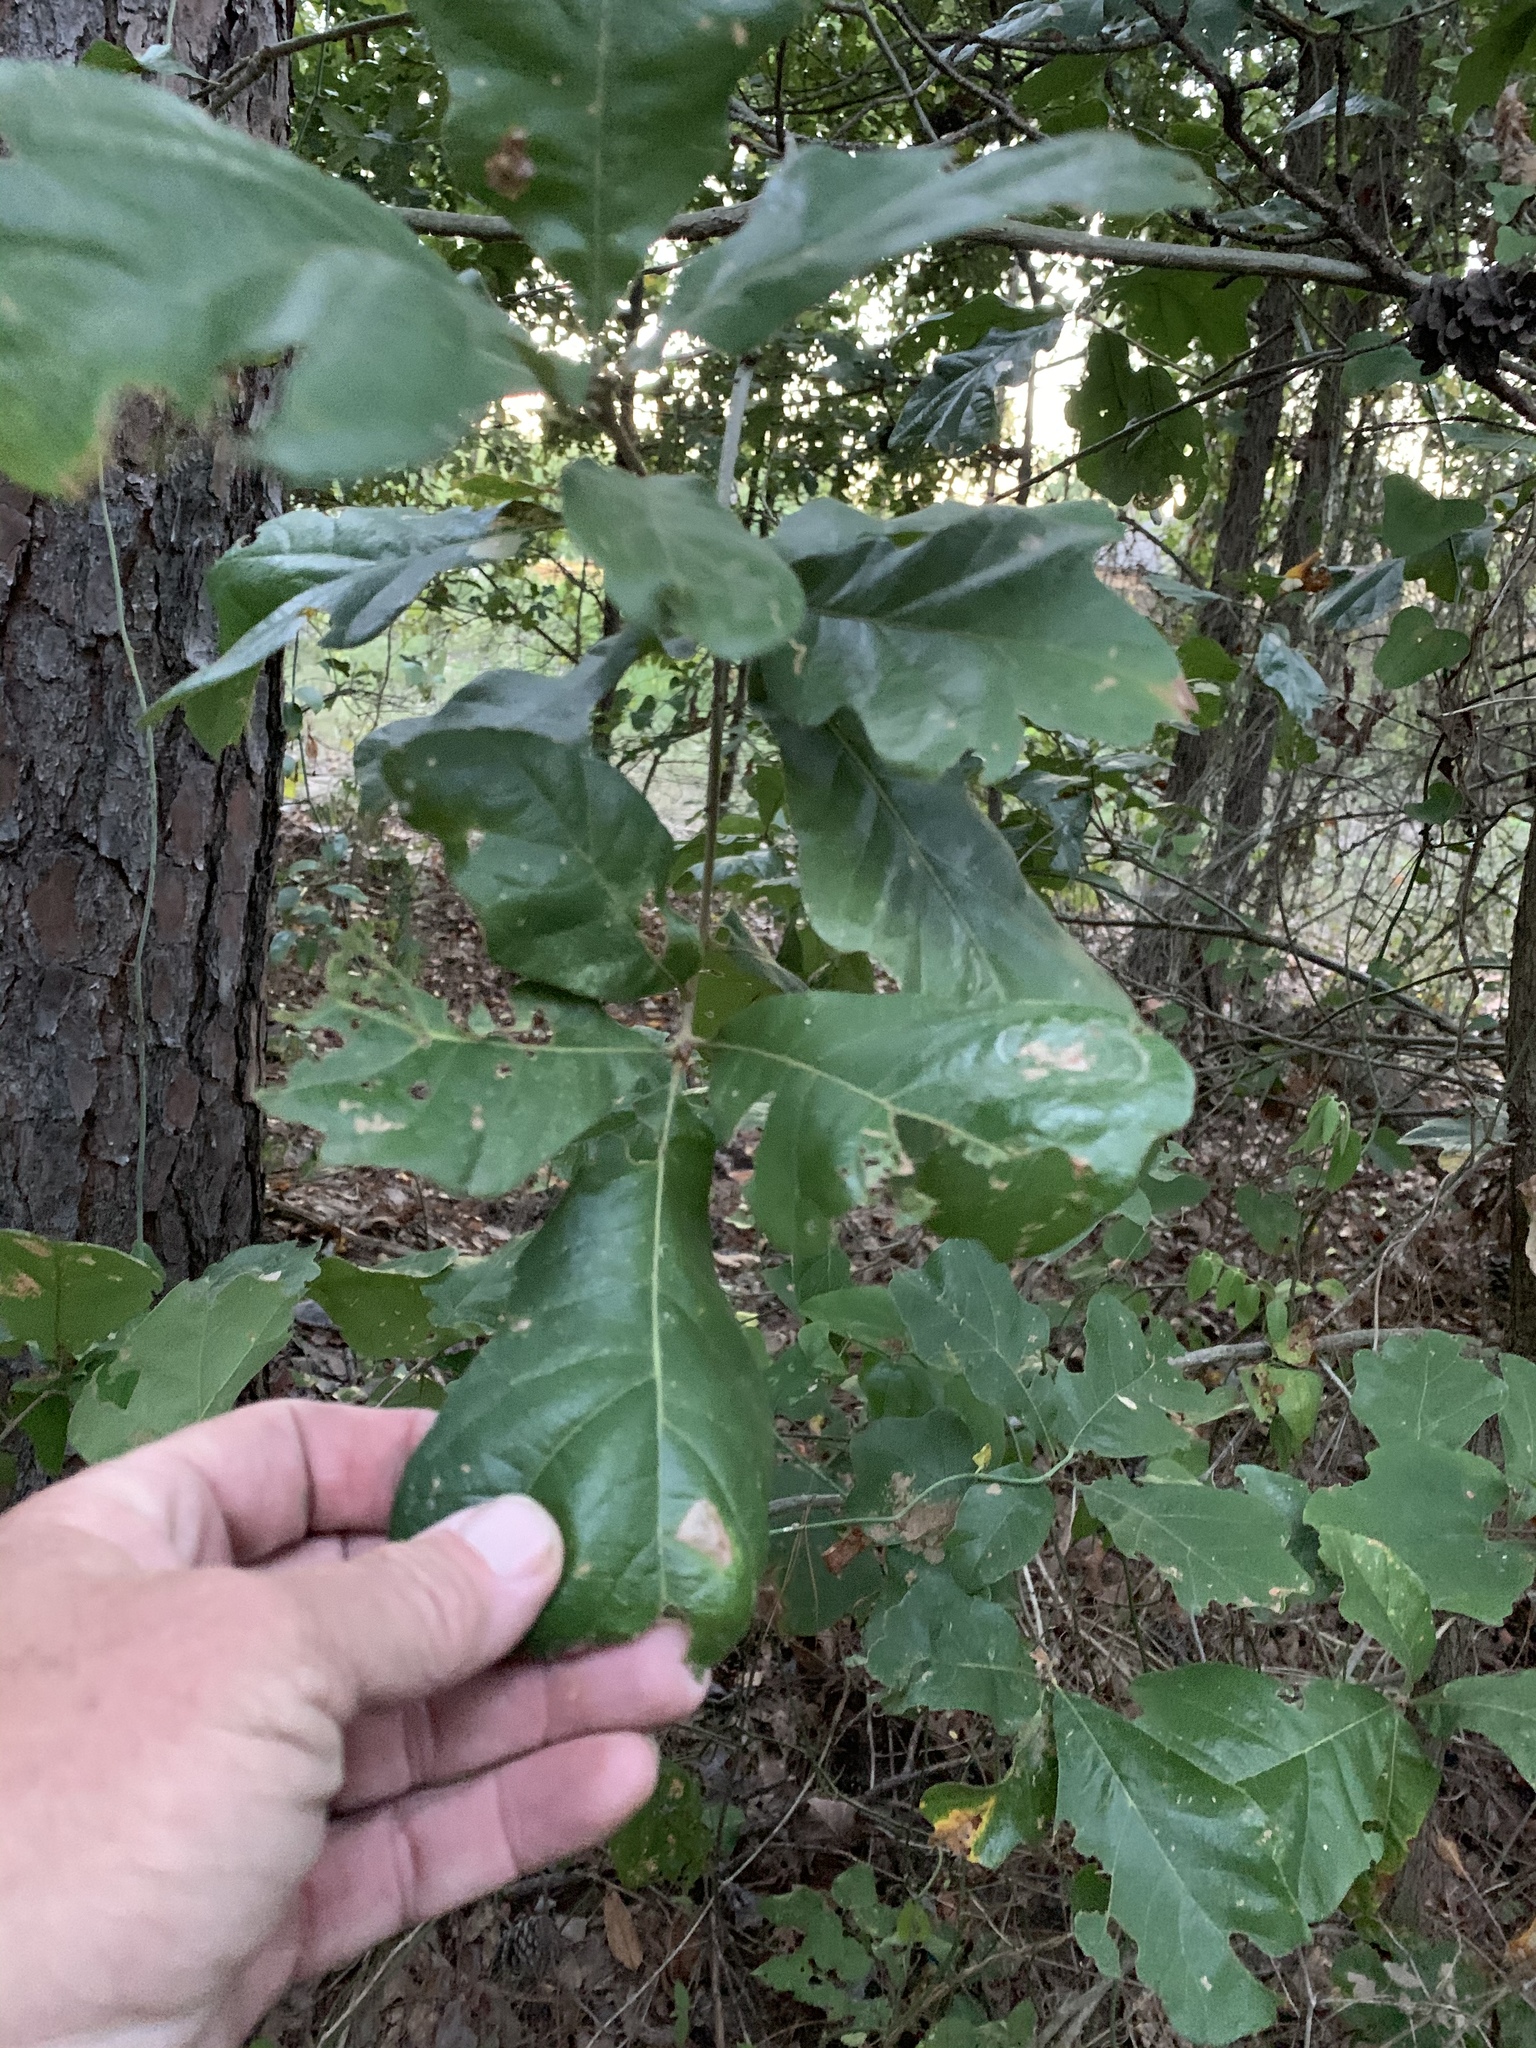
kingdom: Plantae
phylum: Tracheophyta
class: Magnoliopsida
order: Fagales
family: Fagaceae
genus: Quercus
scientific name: Quercus margaretiae
